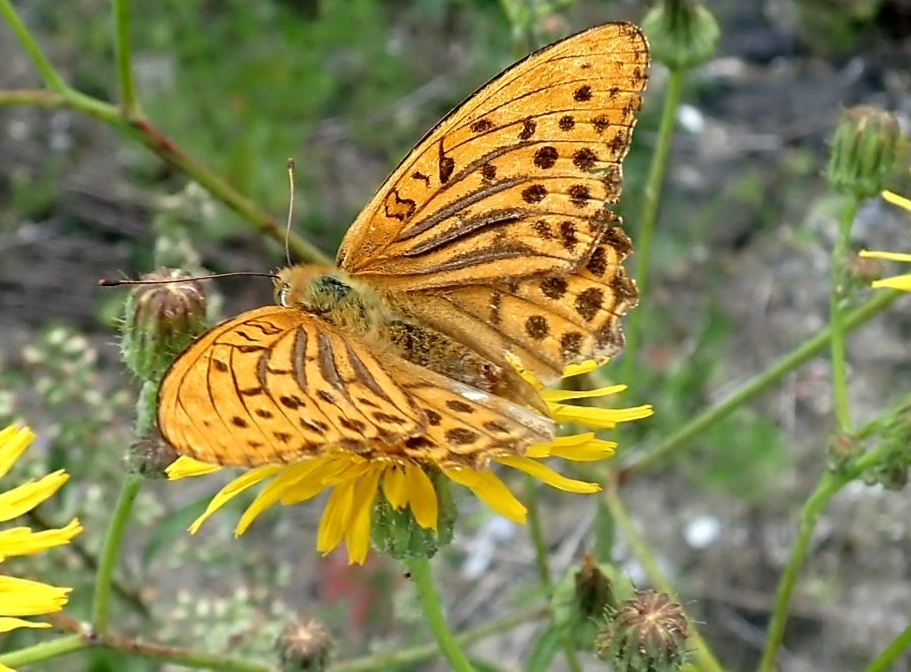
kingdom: Animalia
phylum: Arthropoda
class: Insecta
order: Lepidoptera
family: Nymphalidae
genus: Argynnis
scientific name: Argynnis paphia
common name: Silver-washed fritillary
